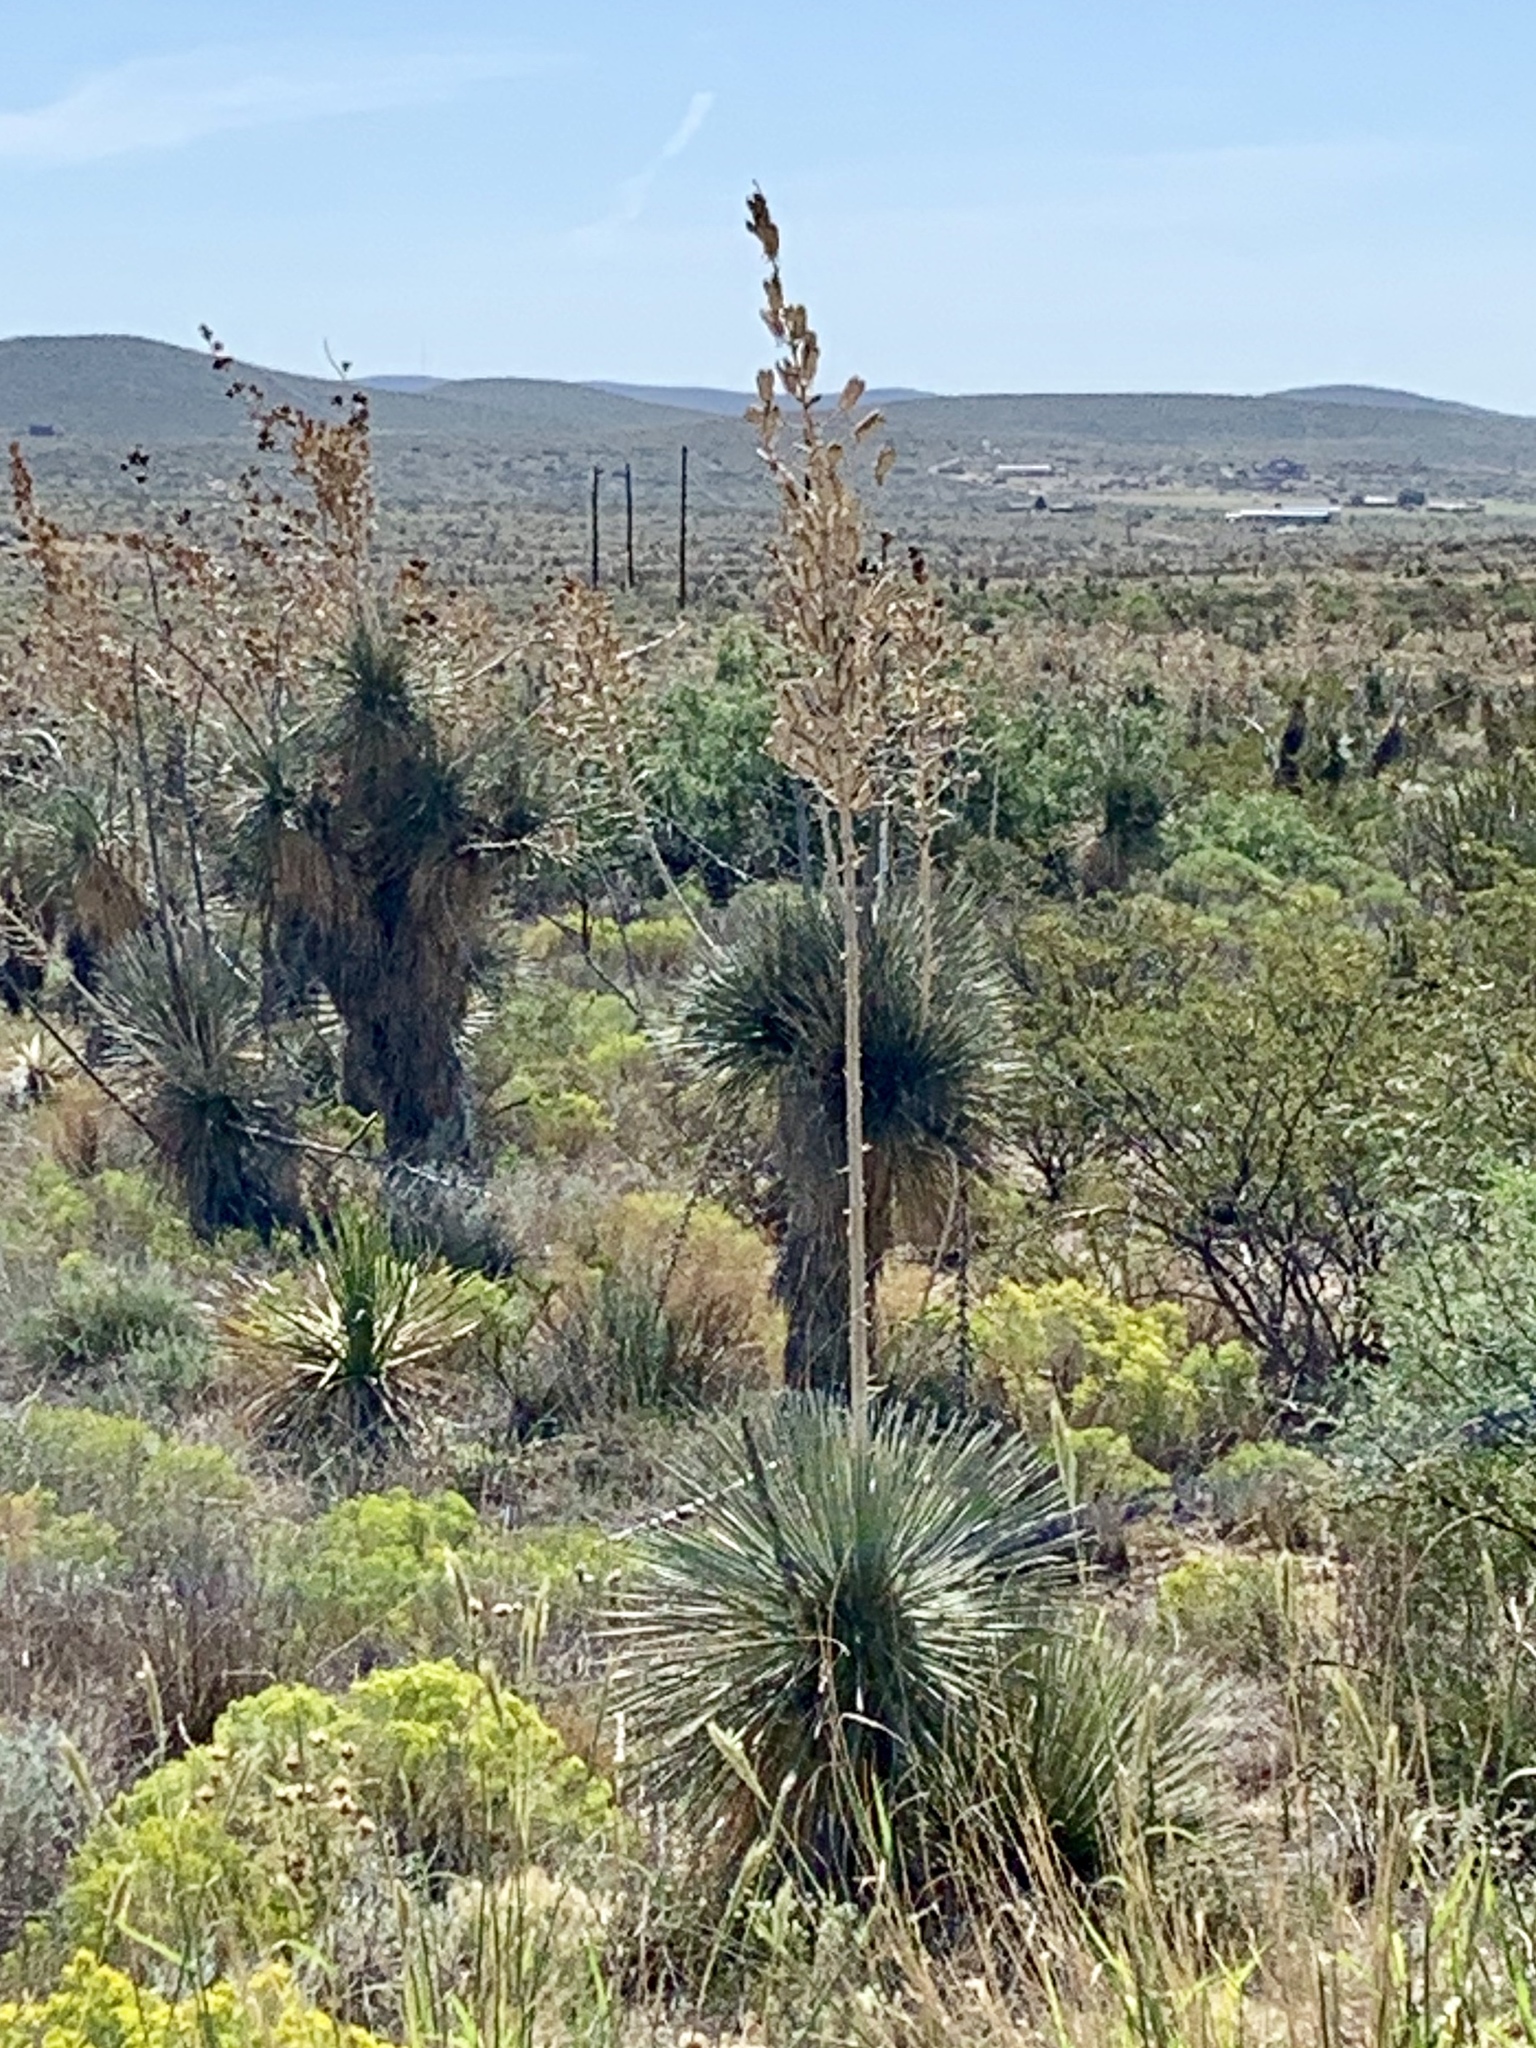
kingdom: Plantae
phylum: Tracheophyta
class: Liliopsida
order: Asparagales
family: Asparagaceae
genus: Yucca
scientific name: Yucca elata
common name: Palmella
